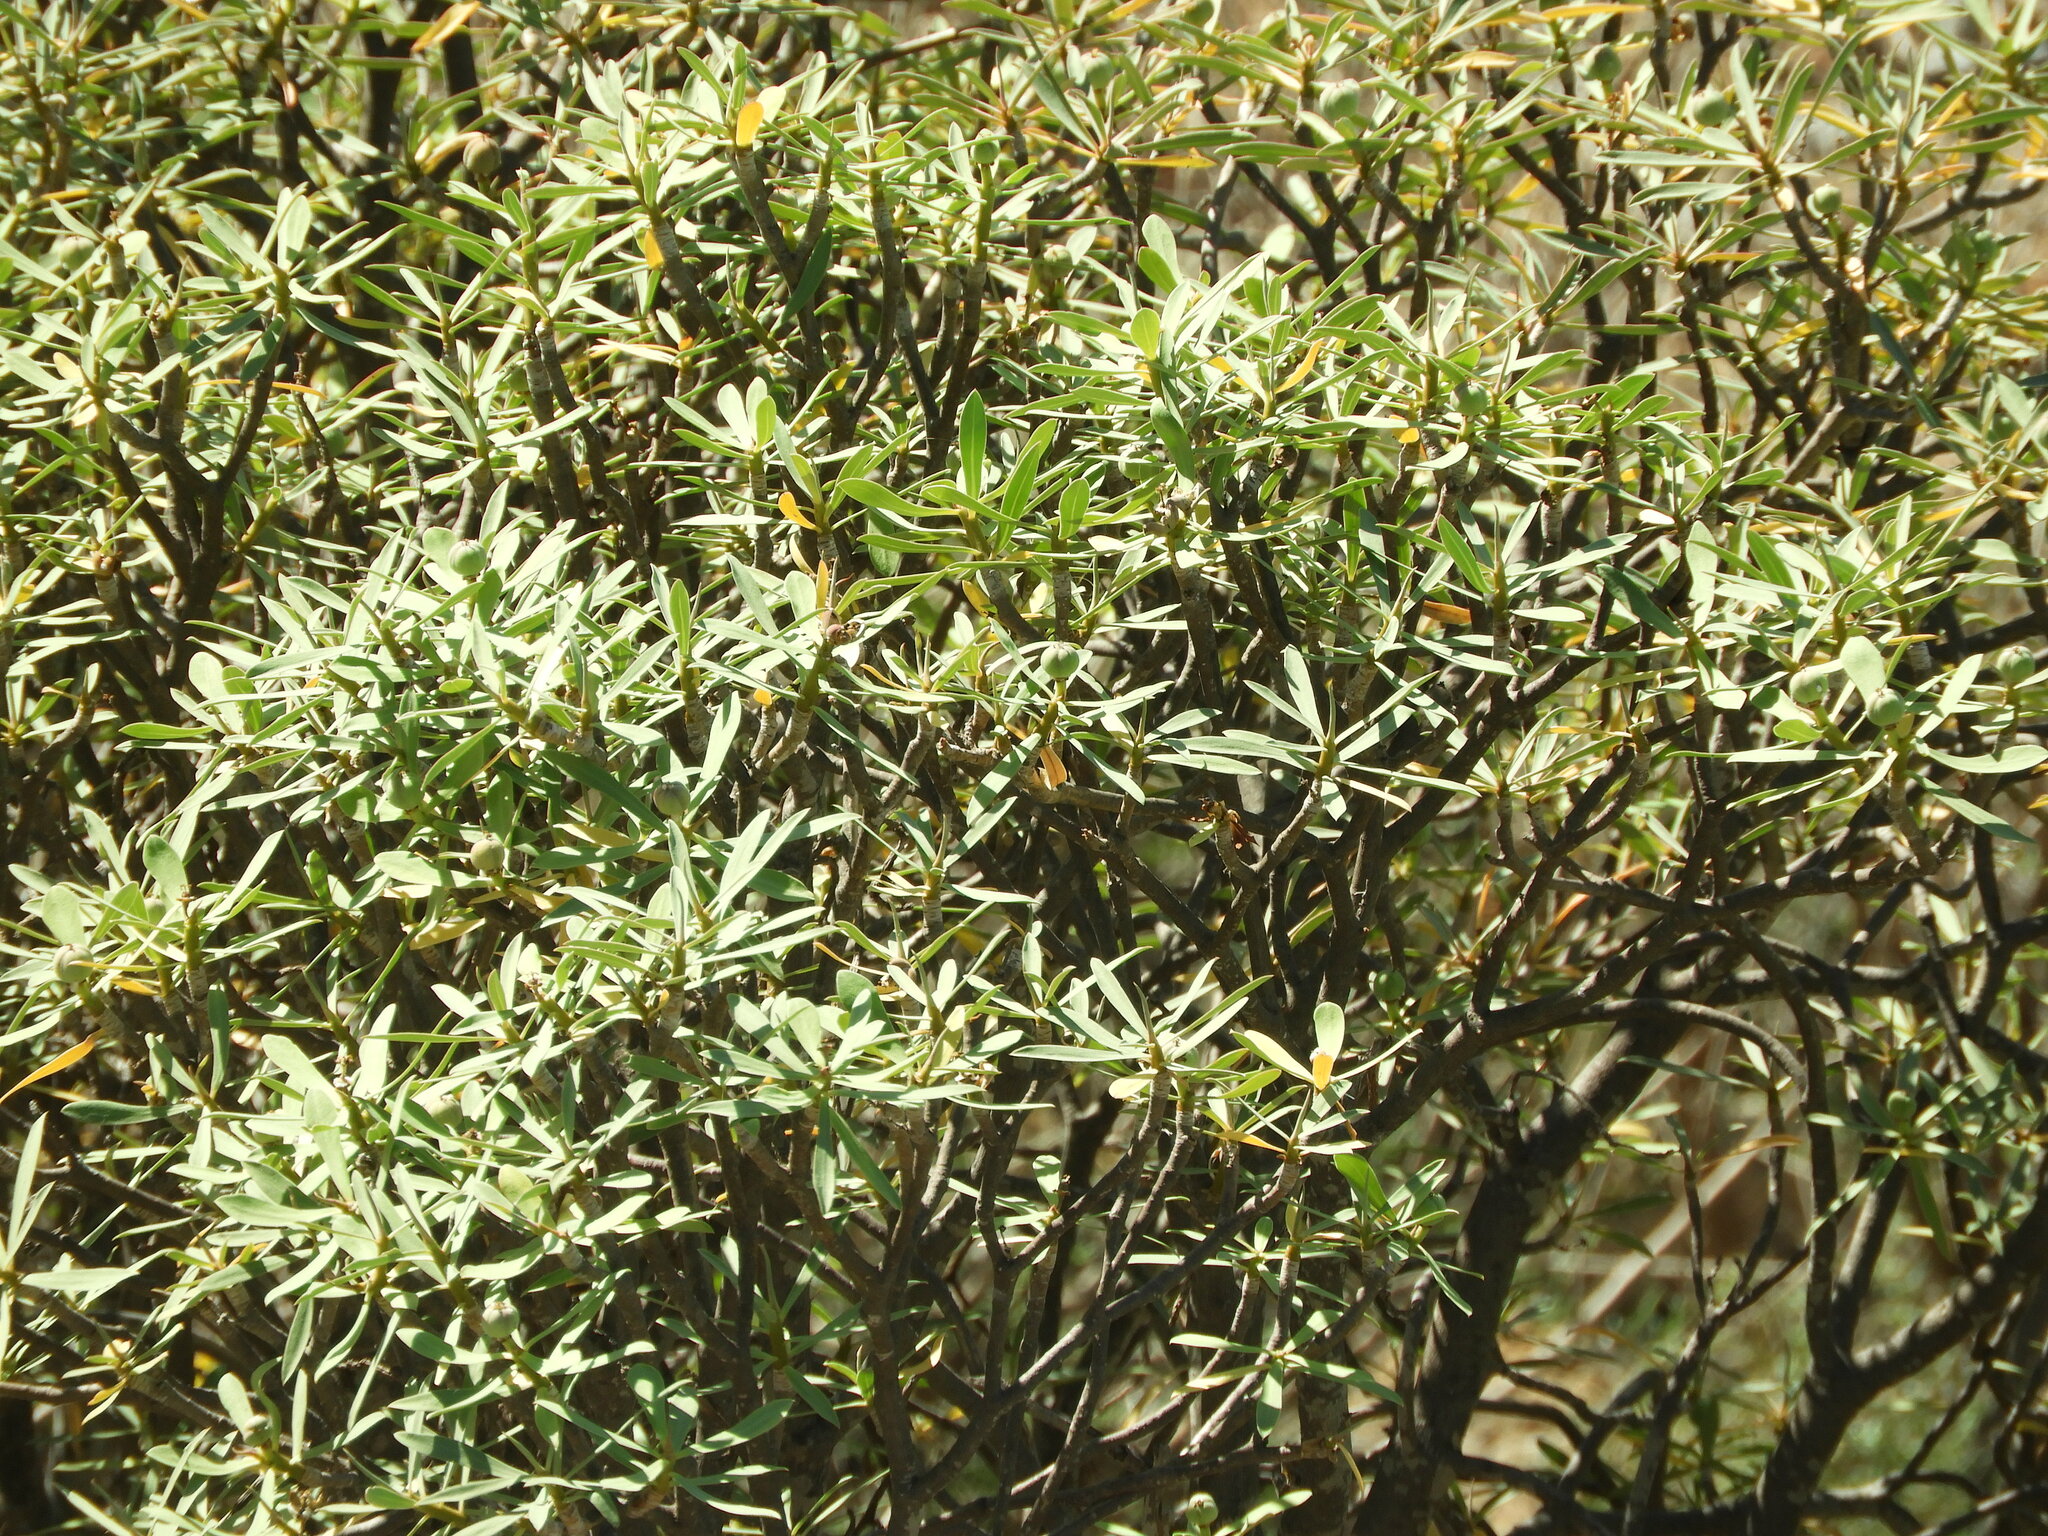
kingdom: Plantae
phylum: Tracheophyta
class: Magnoliopsida
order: Malpighiales
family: Euphorbiaceae
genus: Euphorbia
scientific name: Euphorbia balsamifera
